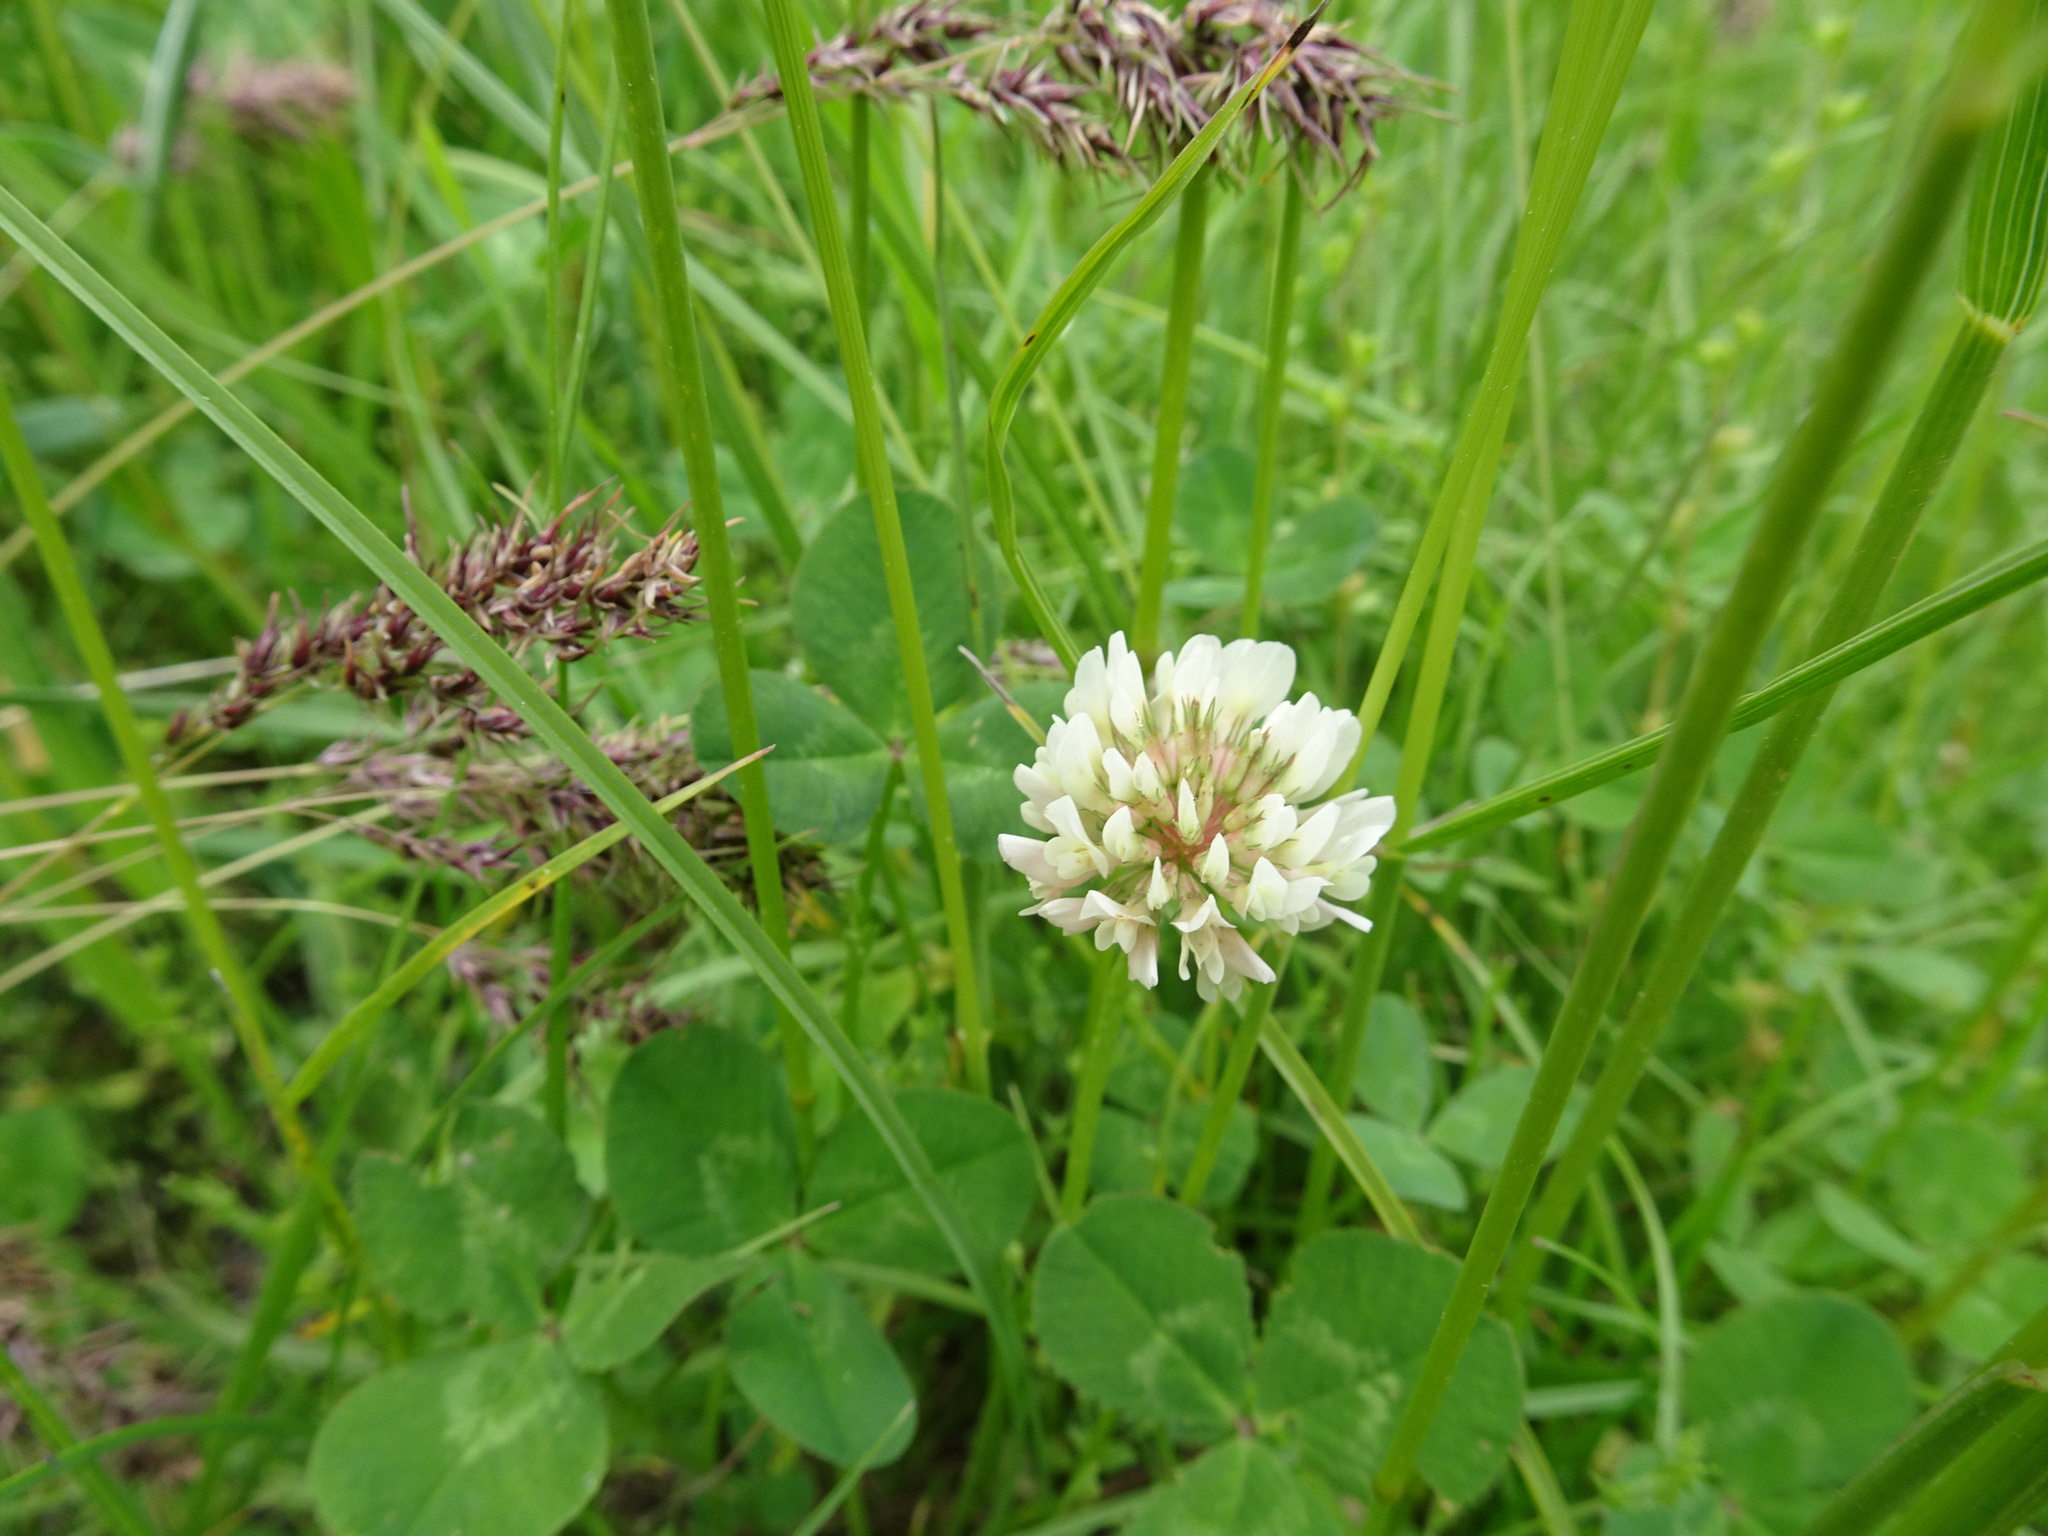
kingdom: Plantae
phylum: Tracheophyta
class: Magnoliopsida
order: Fabales
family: Fabaceae
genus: Trifolium
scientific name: Trifolium repens
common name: White clover
